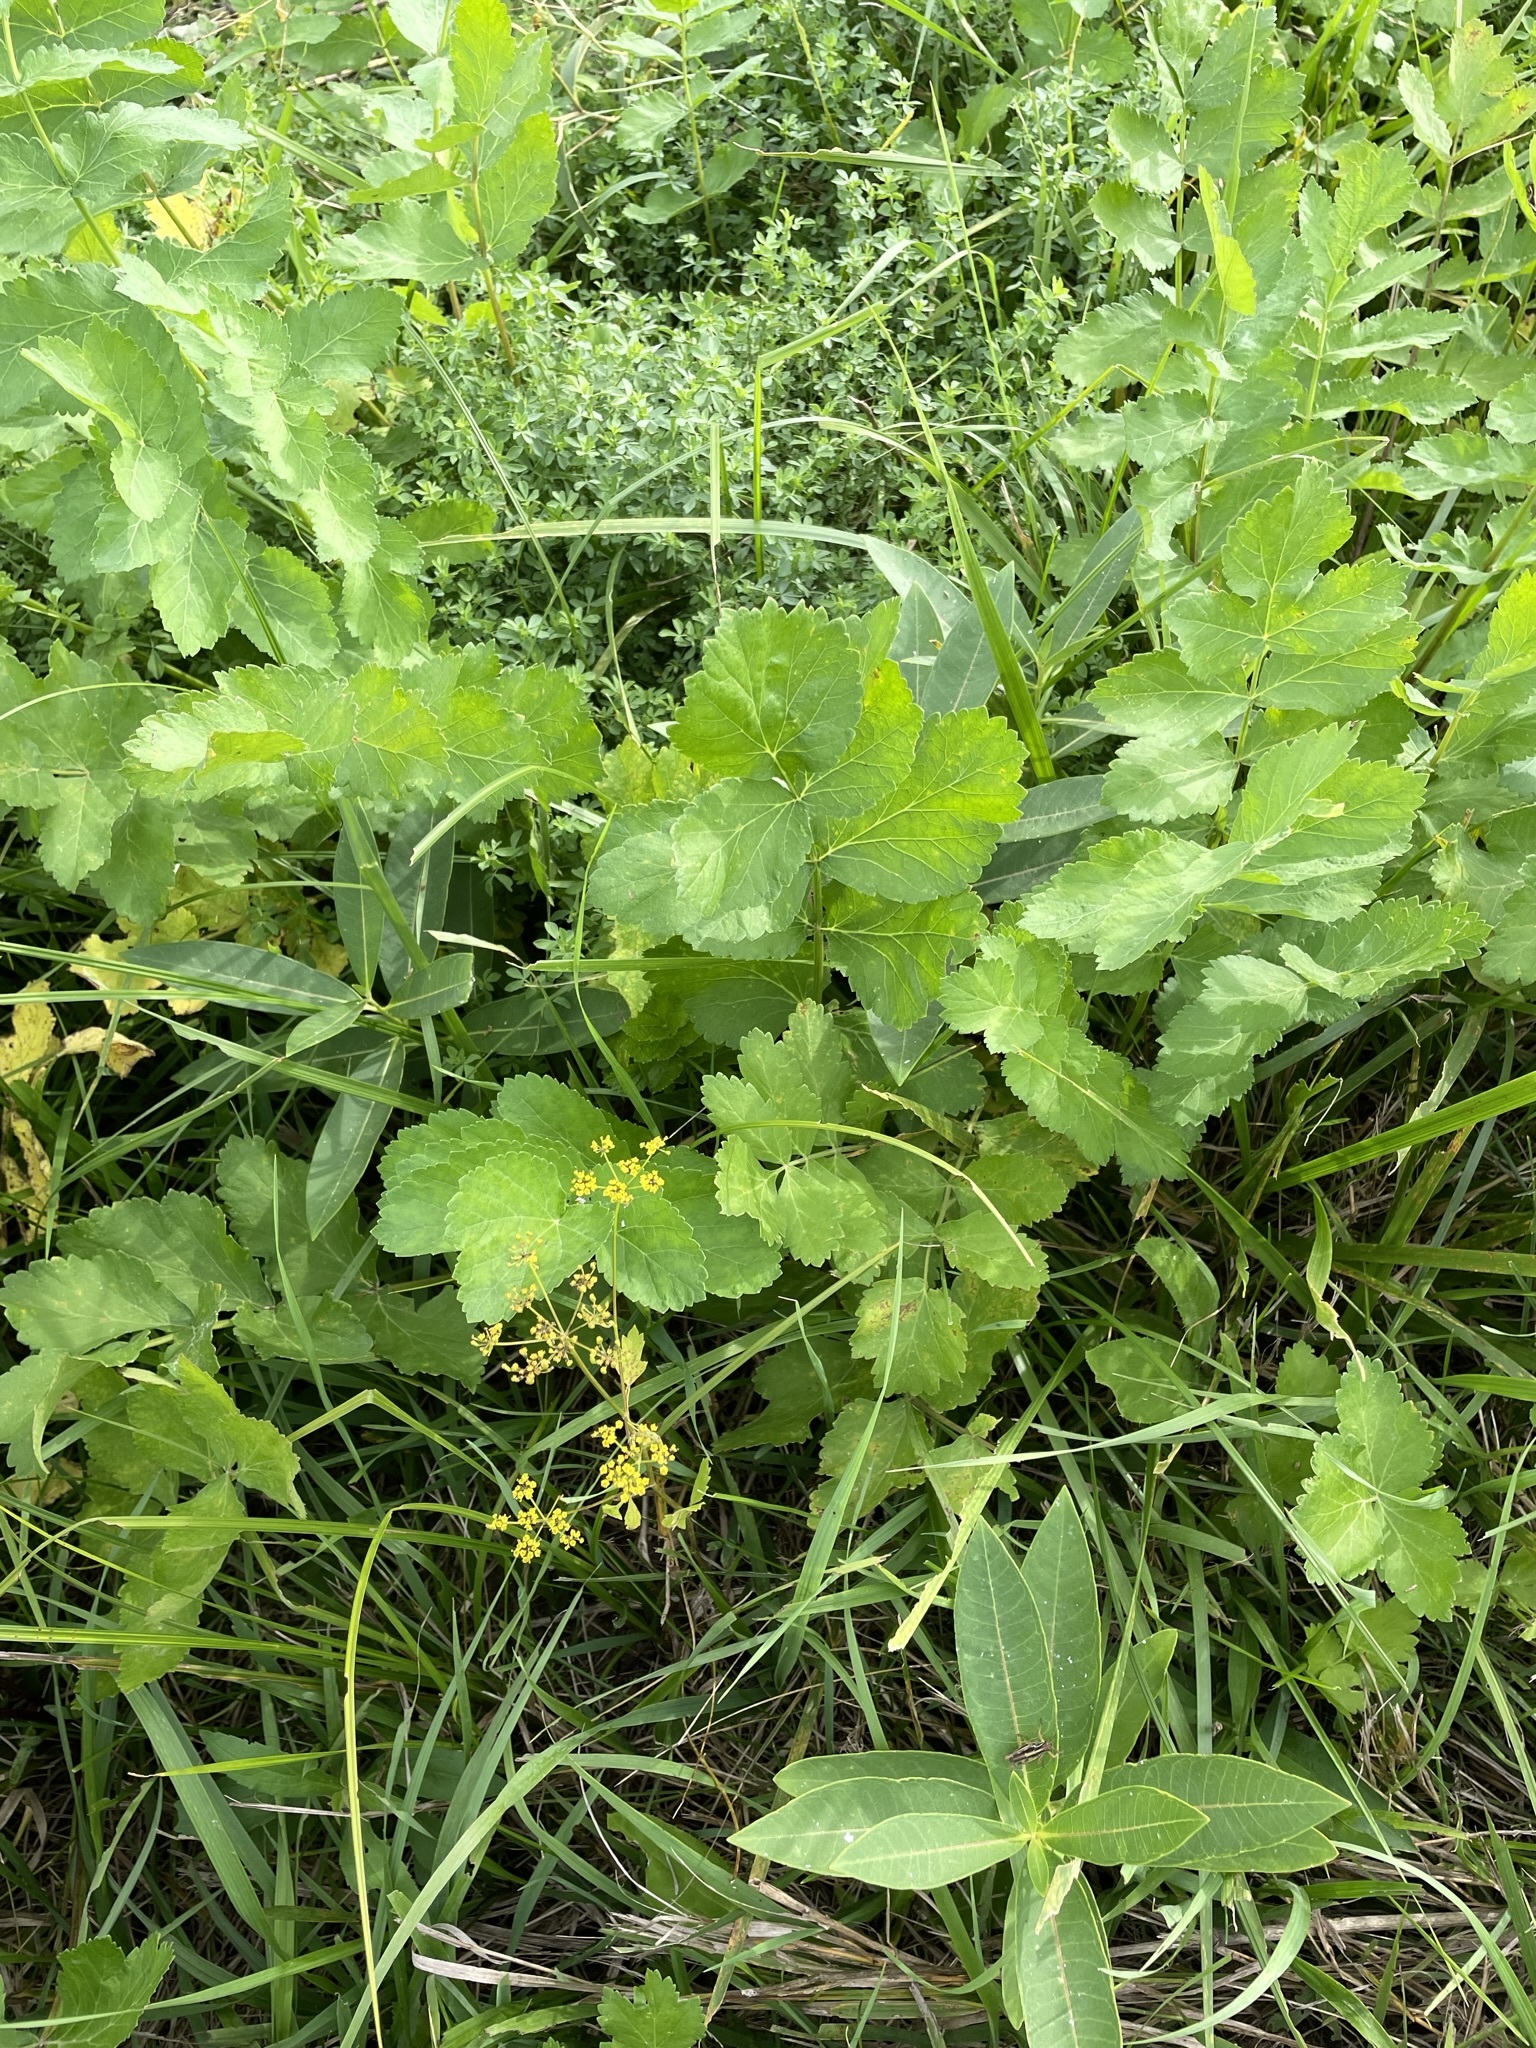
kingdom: Plantae
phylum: Tracheophyta
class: Magnoliopsida
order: Apiales
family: Apiaceae
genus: Pastinaca
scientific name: Pastinaca sativa
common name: Wild parsnip
